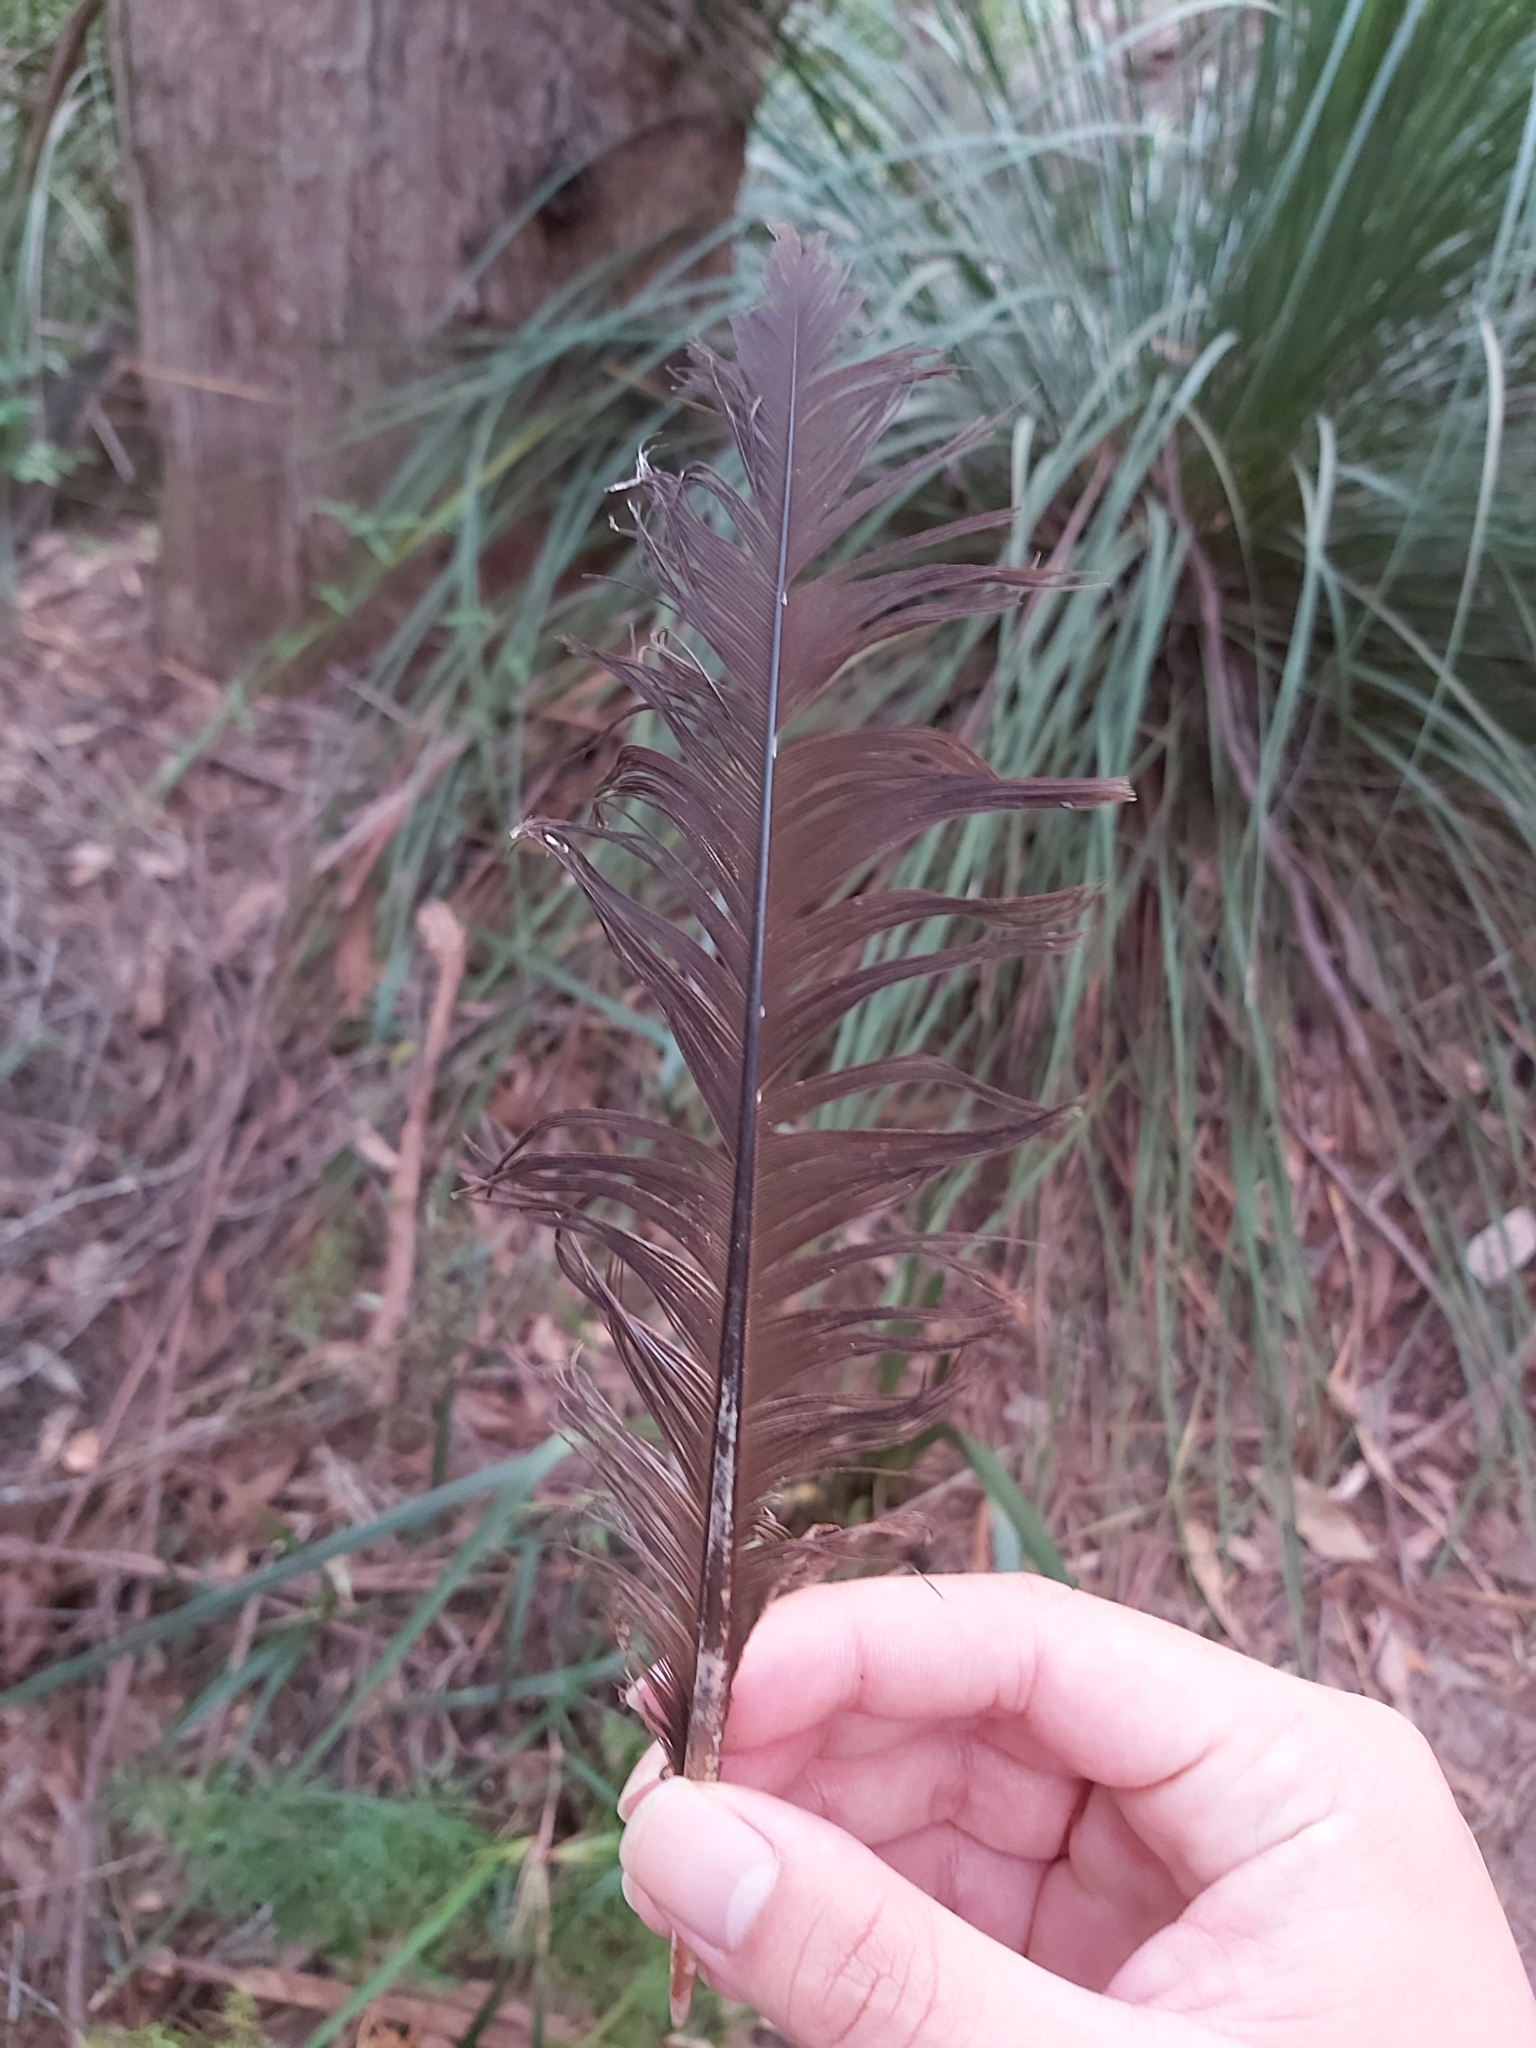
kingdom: Animalia
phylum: Chordata
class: Aves
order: Galliformes
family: Megapodiidae
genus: Alectura
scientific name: Alectura lathami
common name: Australian brushturkey
